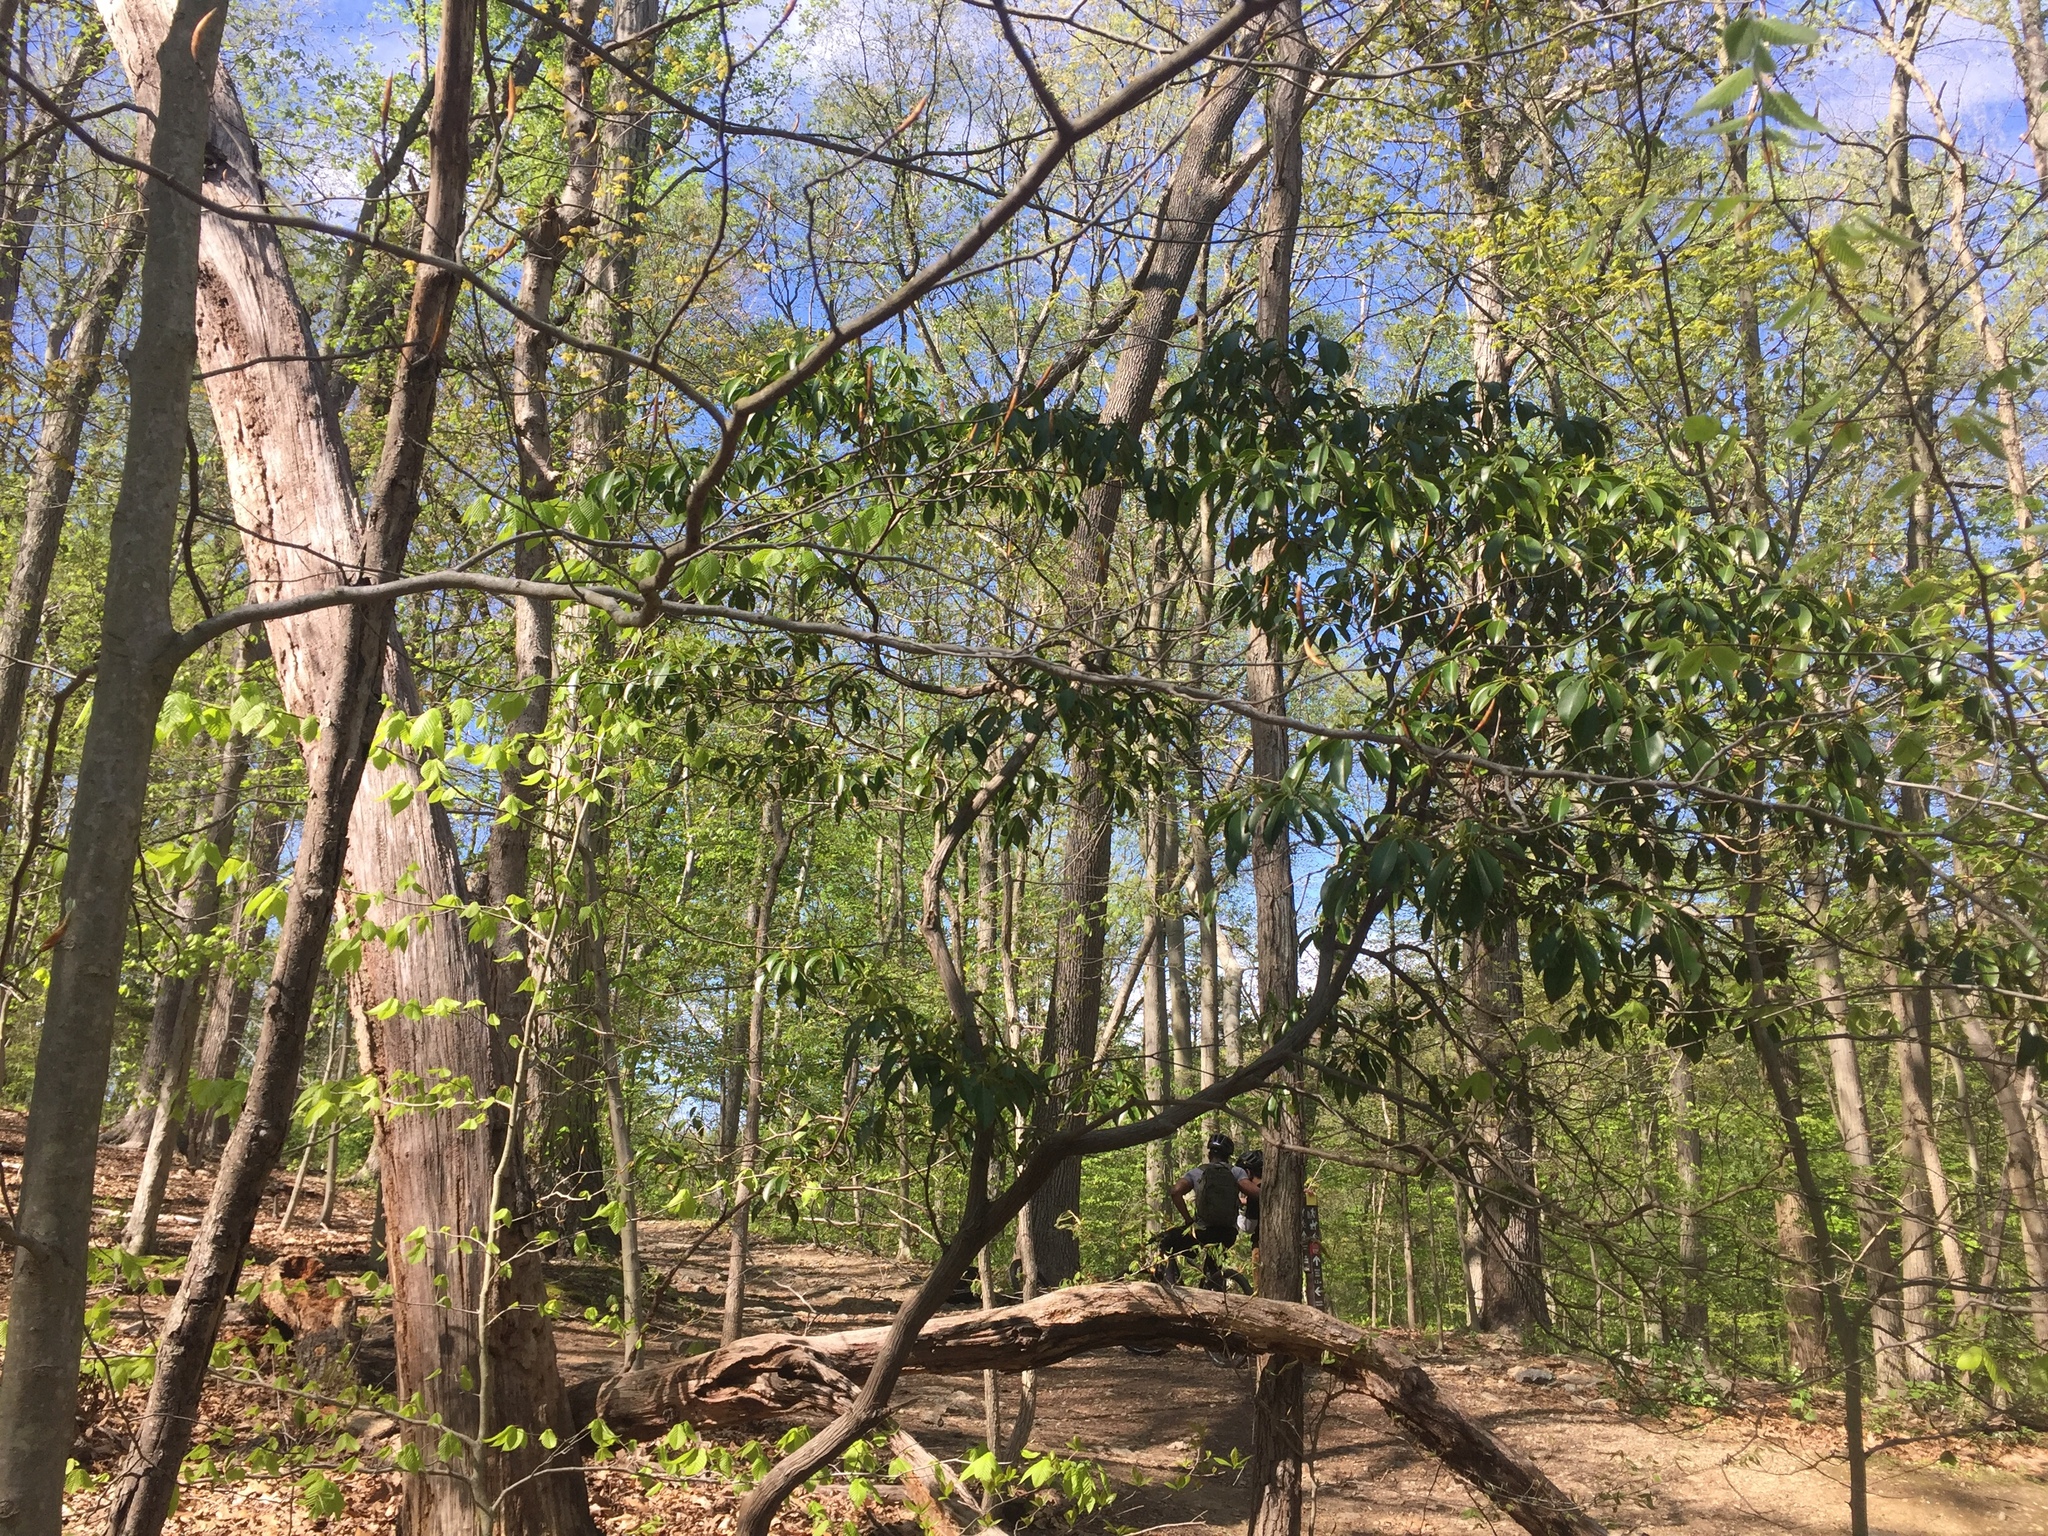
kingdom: Plantae
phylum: Tracheophyta
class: Magnoliopsida
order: Ericales
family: Ericaceae
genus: Kalmia
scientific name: Kalmia latifolia
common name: Mountain-laurel
